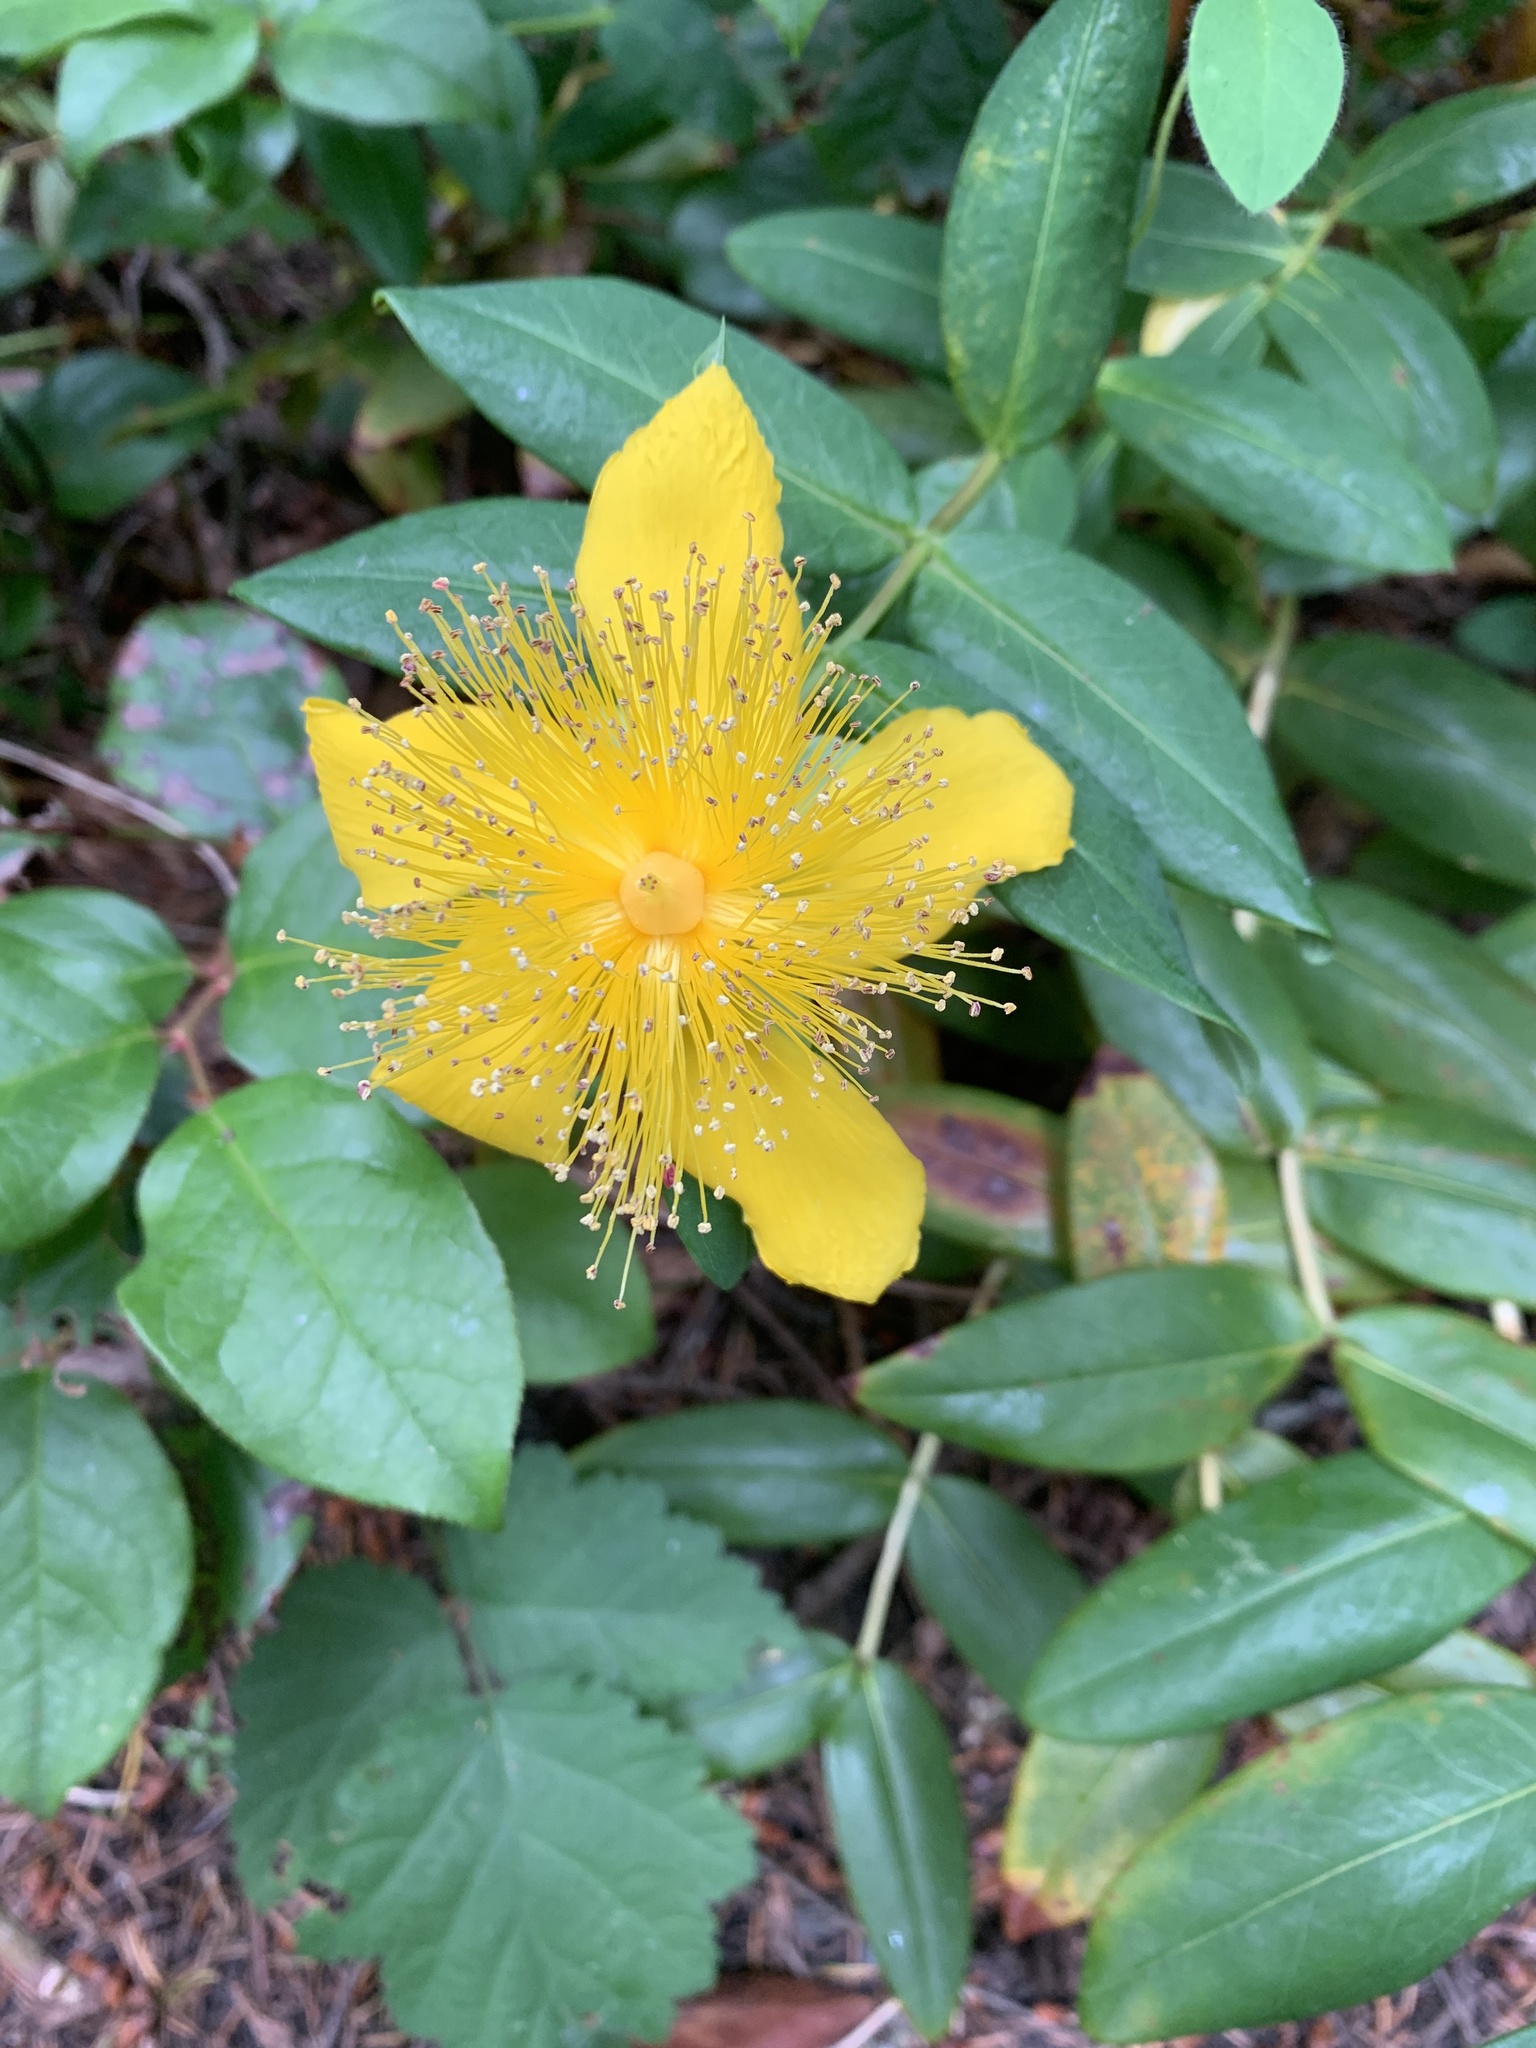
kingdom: Plantae
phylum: Tracheophyta
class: Magnoliopsida
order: Malpighiales
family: Hypericaceae
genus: Hypericum
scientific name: Hypericum calycinum
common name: Rose-of-sharon
